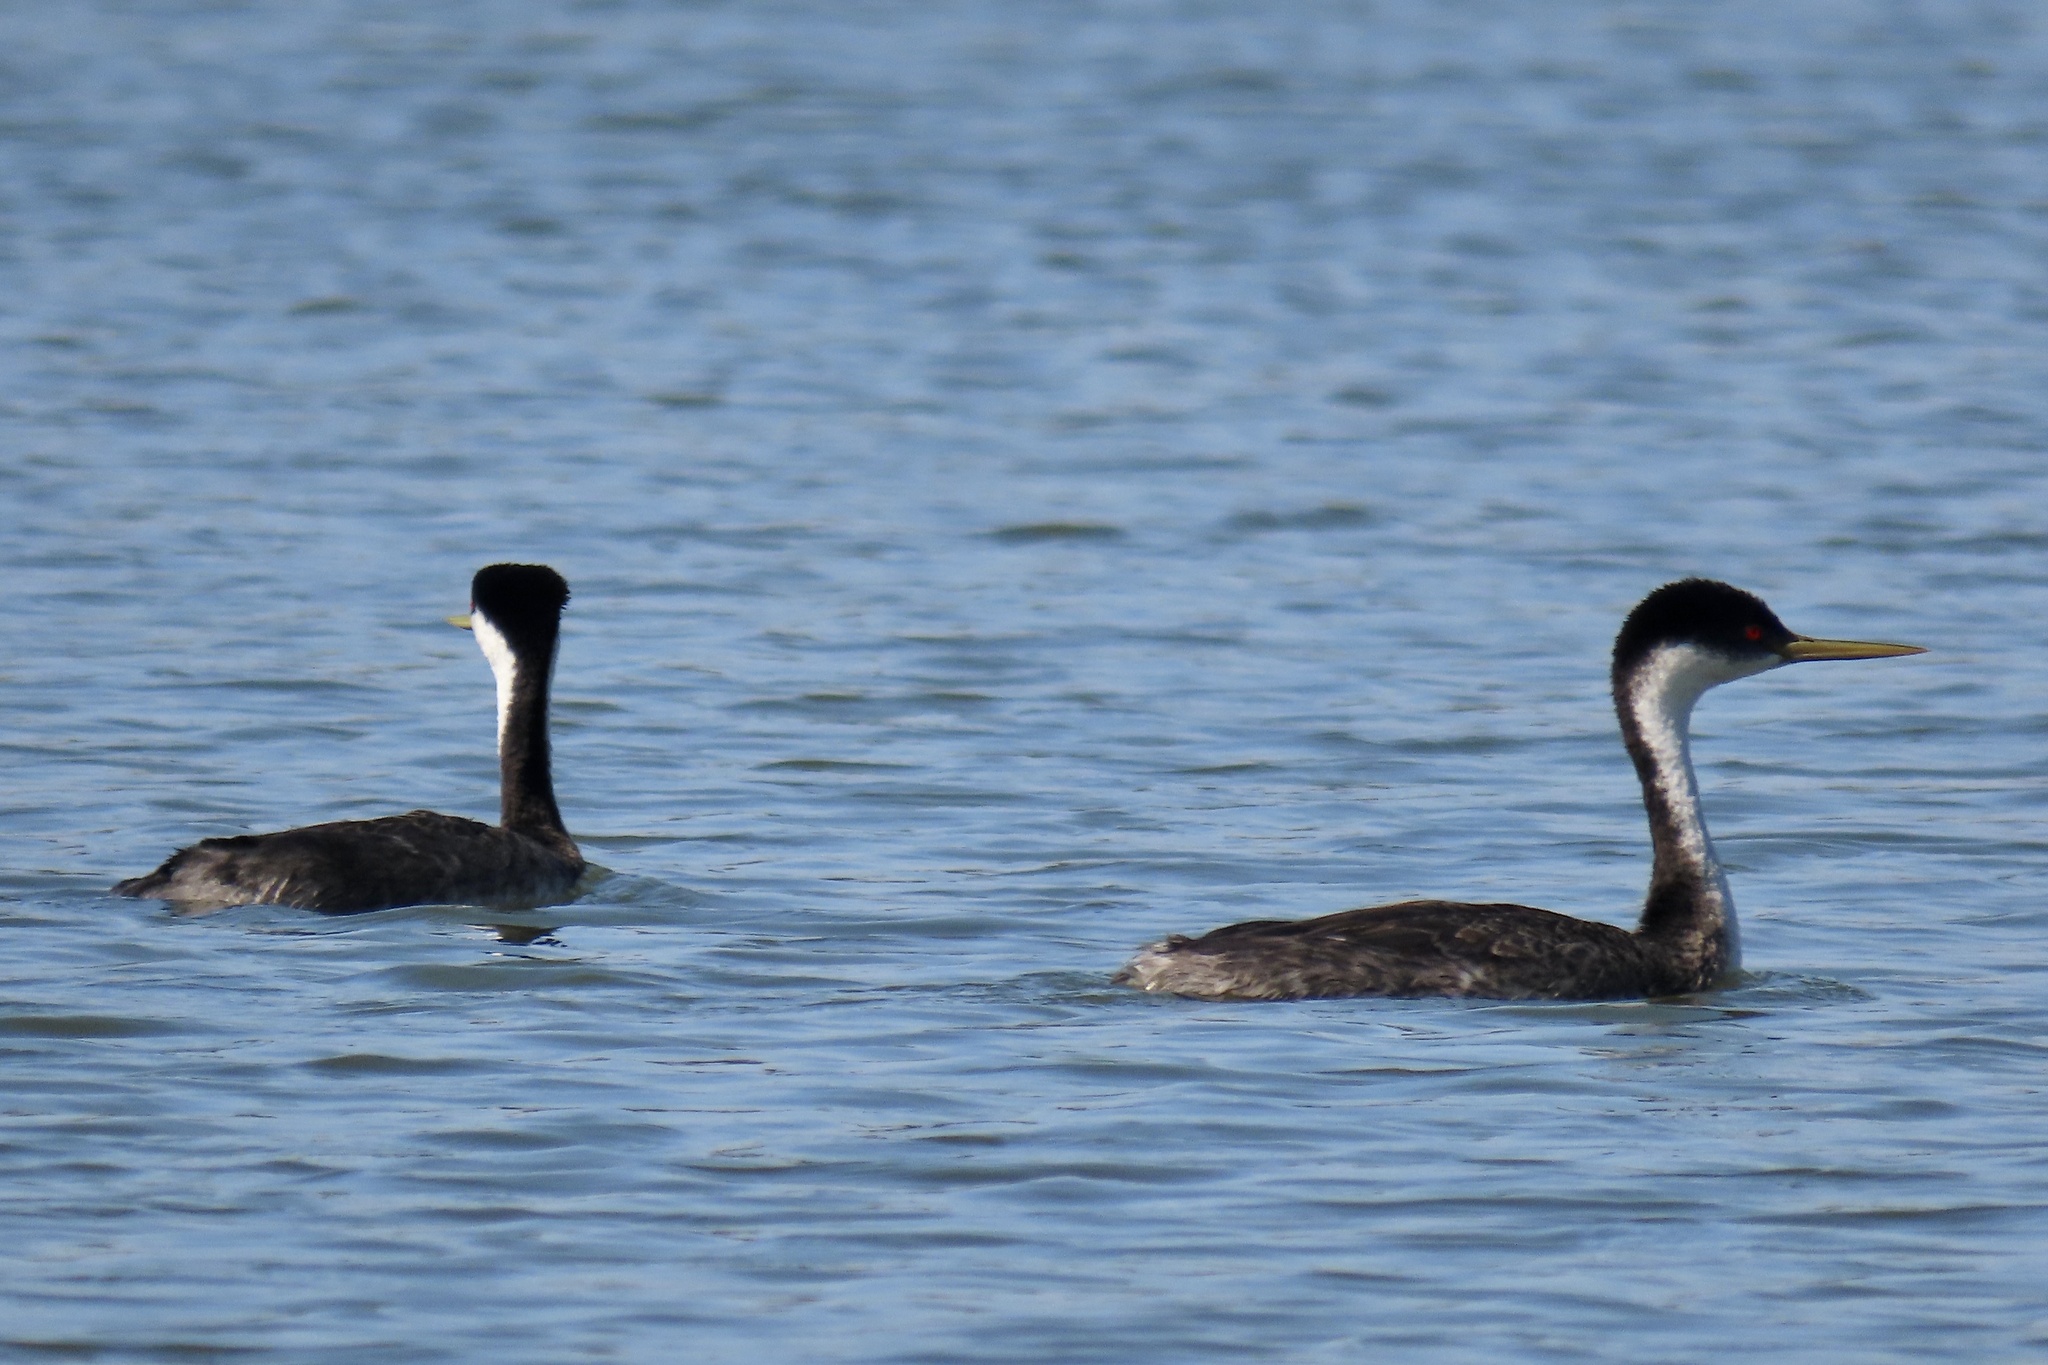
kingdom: Animalia
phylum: Chordata
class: Aves
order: Podicipediformes
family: Podicipedidae
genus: Aechmophorus
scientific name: Aechmophorus occidentalis
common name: Western grebe
